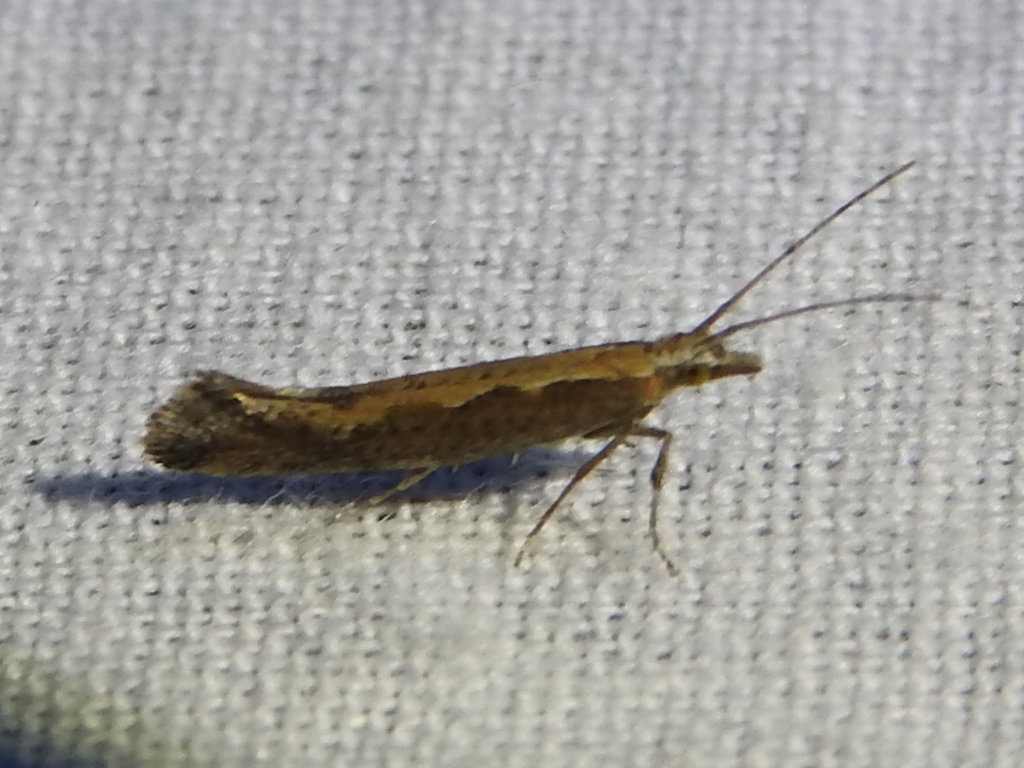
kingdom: Animalia
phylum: Arthropoda
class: Insecta
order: Lepidoptera
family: Plutellidae
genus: Plutella
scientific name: Plutella xylostella
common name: Diamond-back moth
